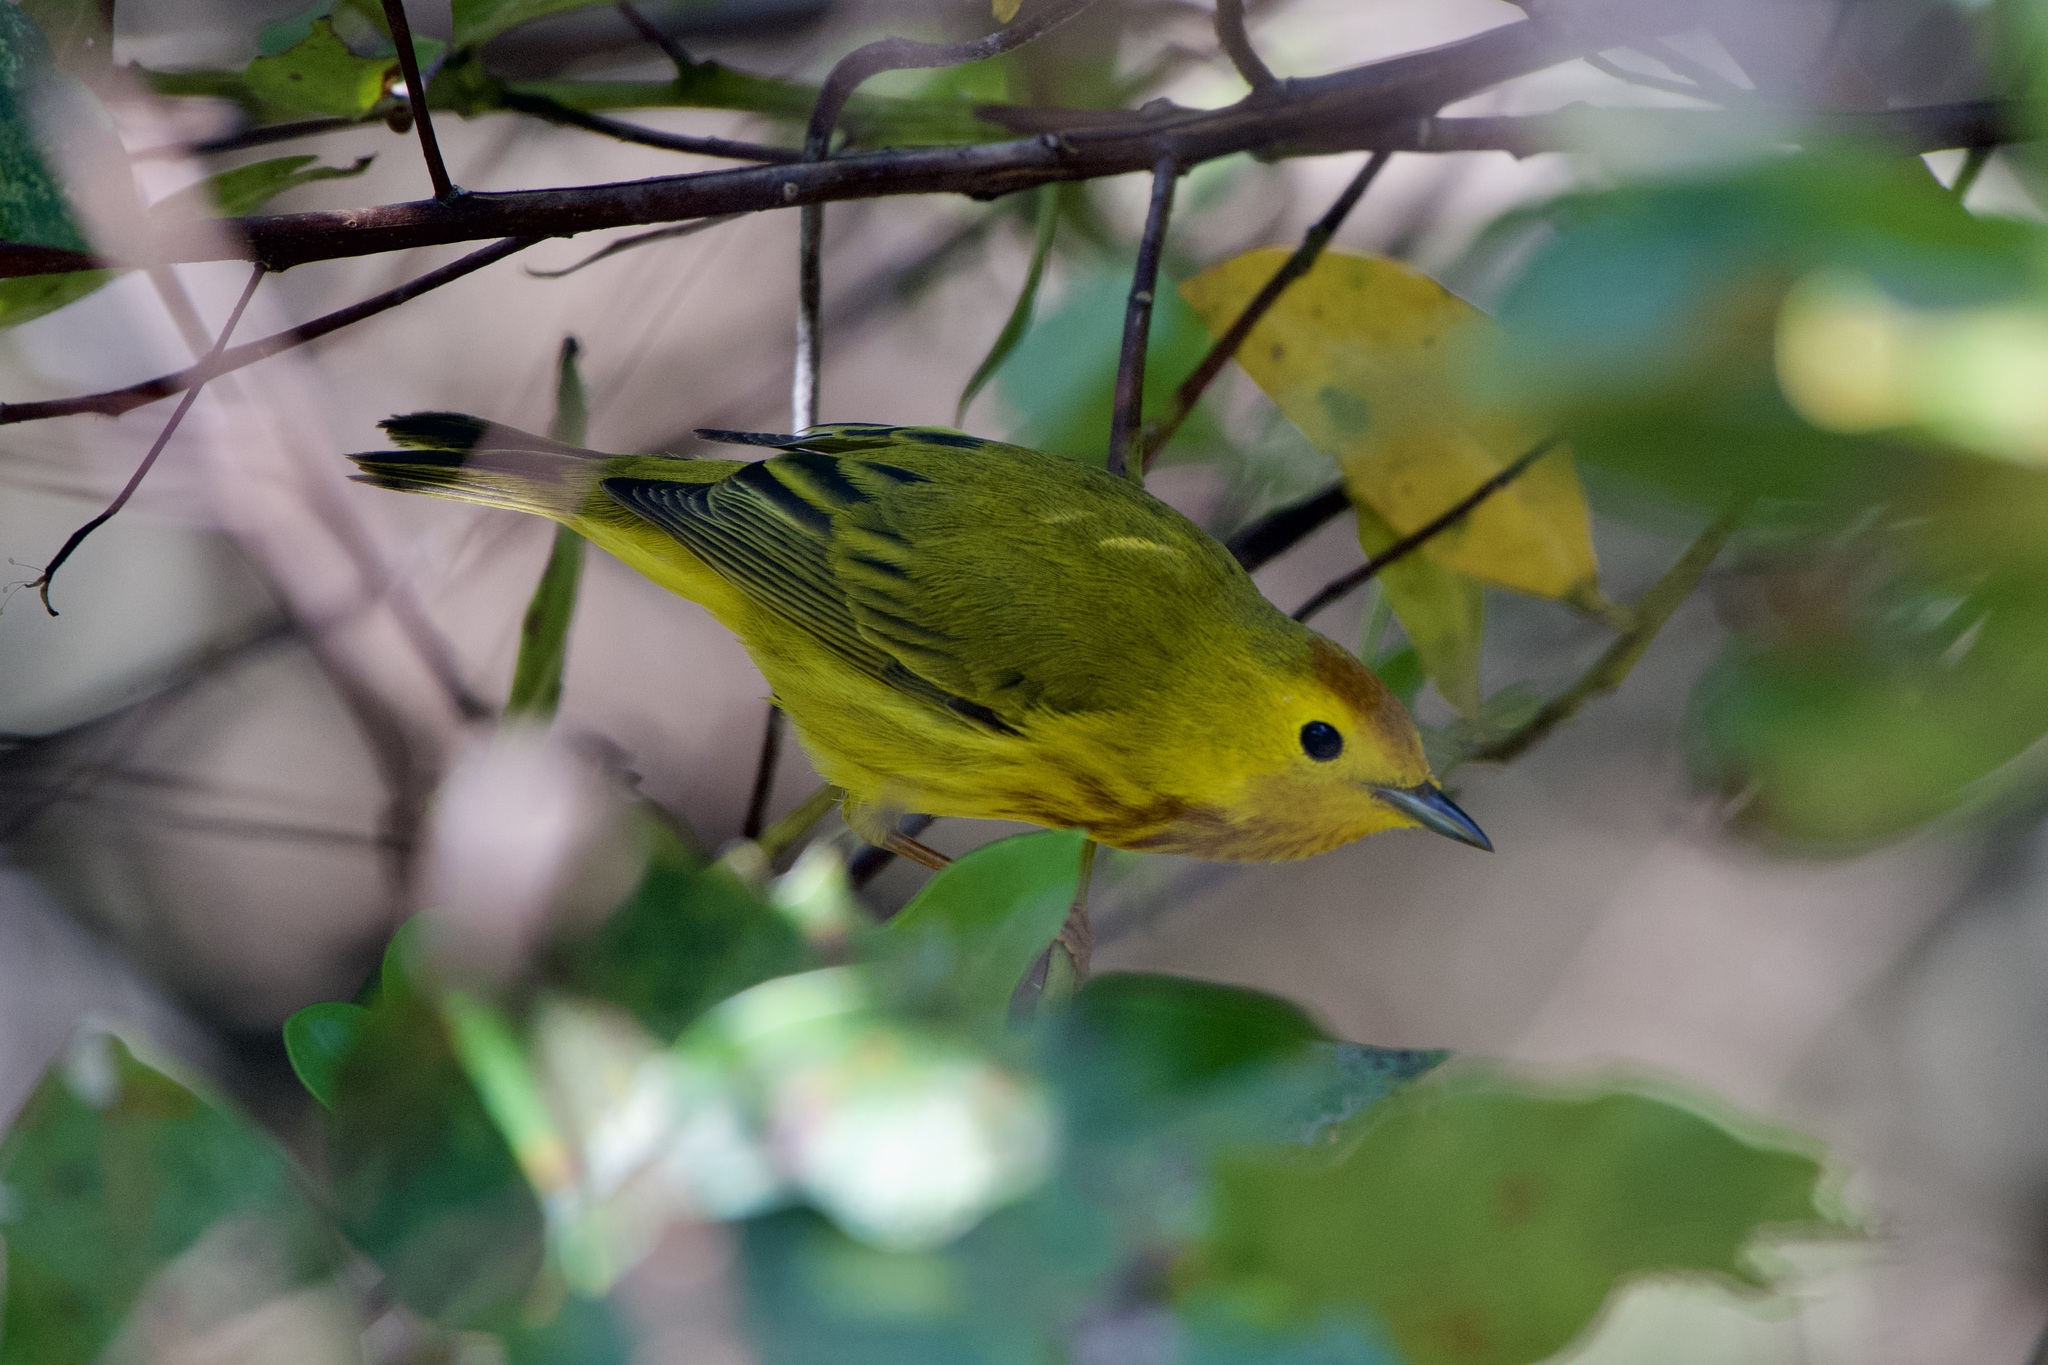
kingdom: Animalia
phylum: Chordata
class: Aves
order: Passeriformes
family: Parulidae
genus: Setophaga
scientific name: Setophaga petechia
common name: Yellow warbler
